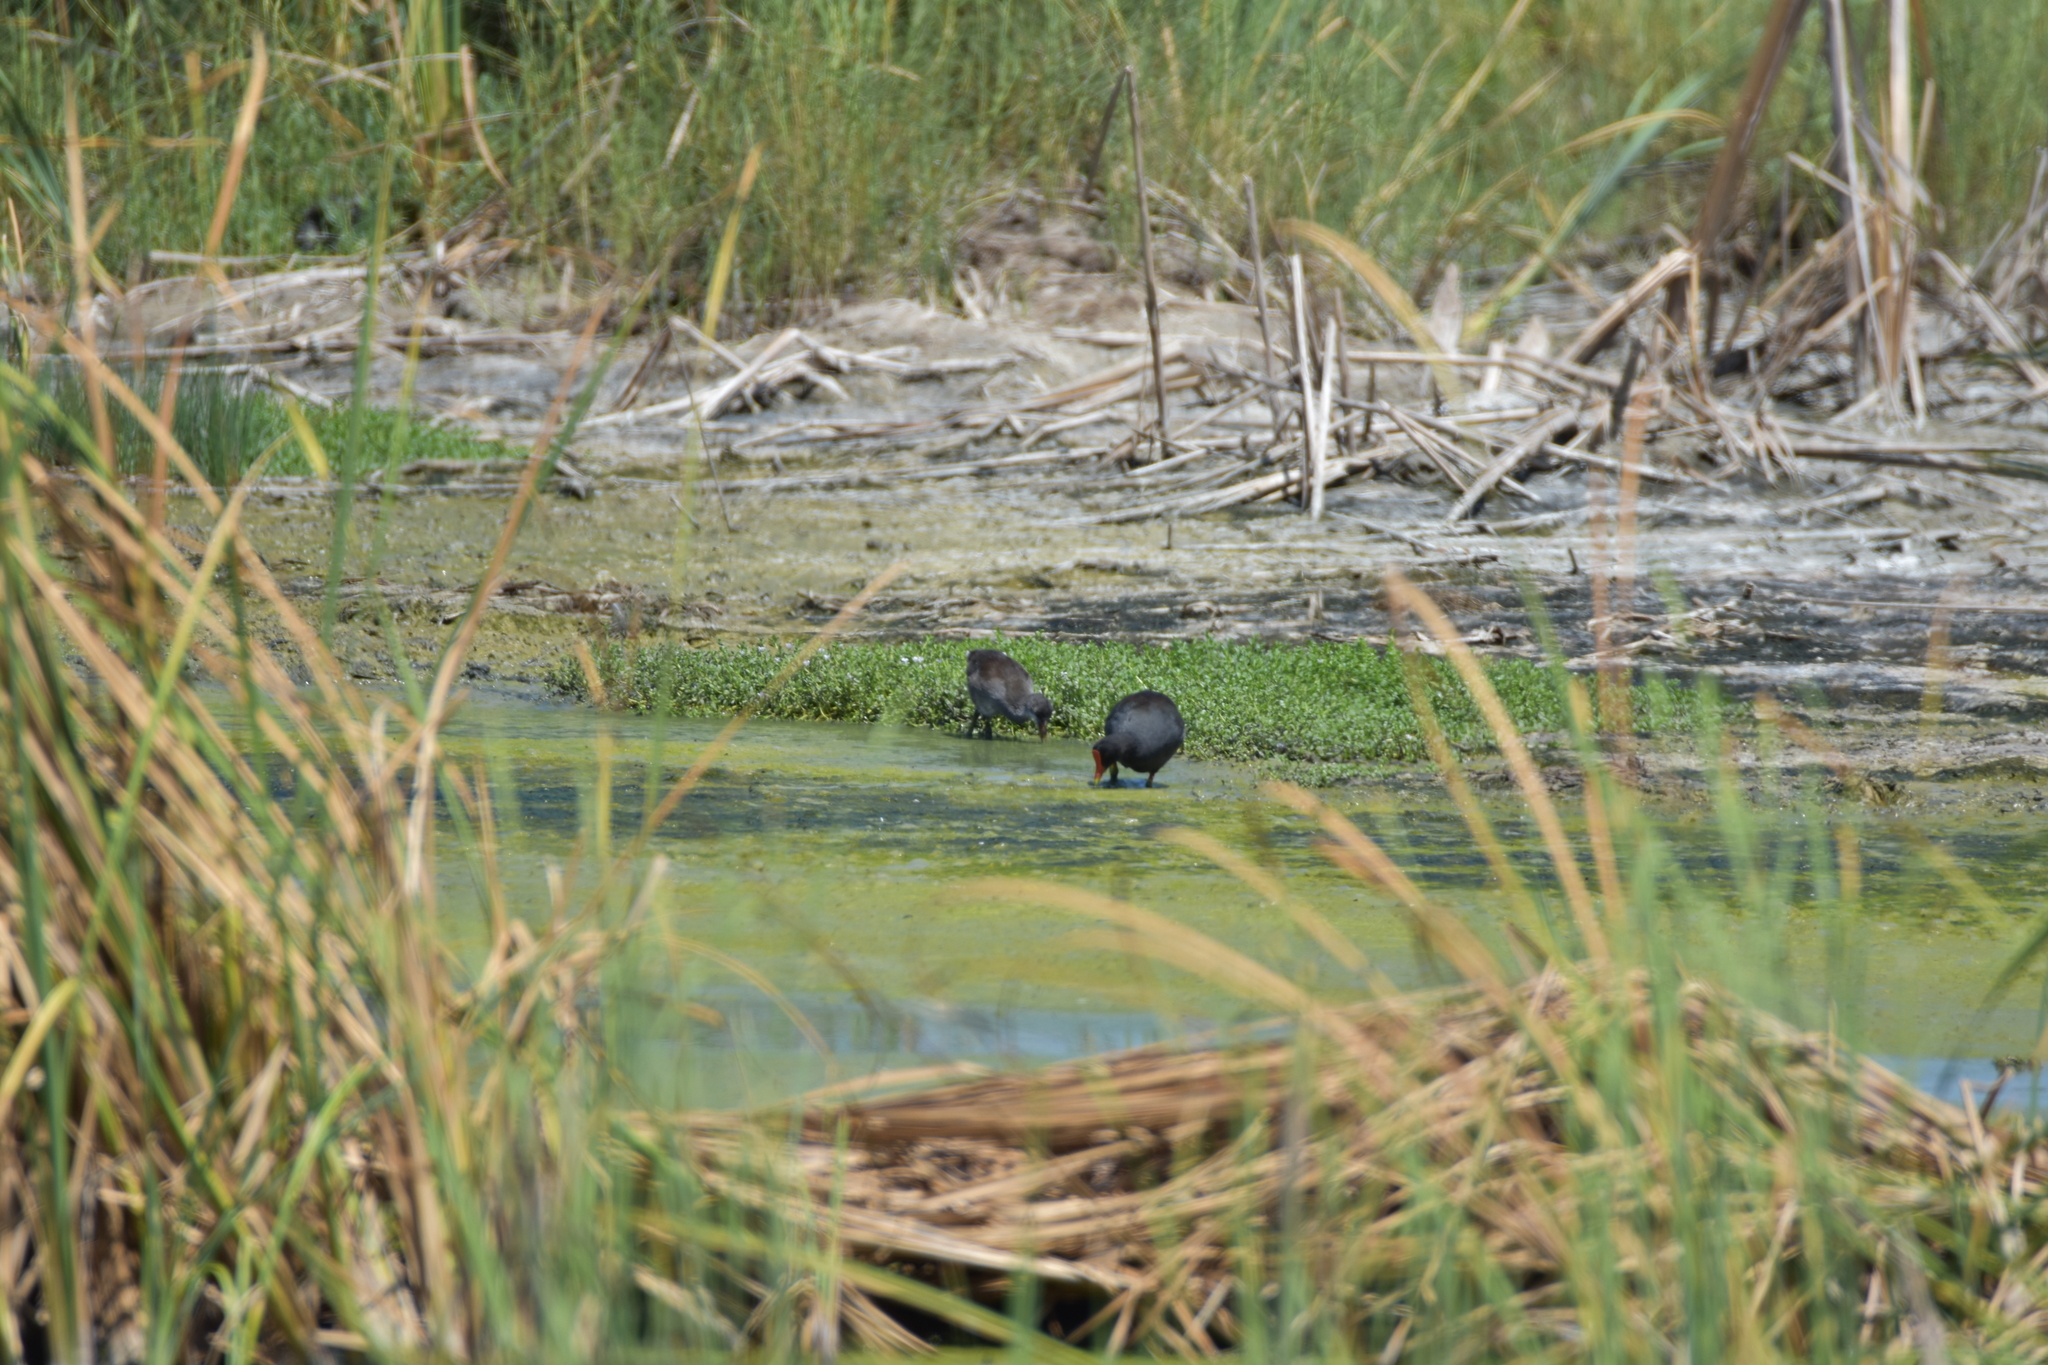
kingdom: Animalia
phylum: Chordata
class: Aves
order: Gruiformes
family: Rallidae
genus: Gallinula
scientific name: Gallinula chloropus
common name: Common moorhen
